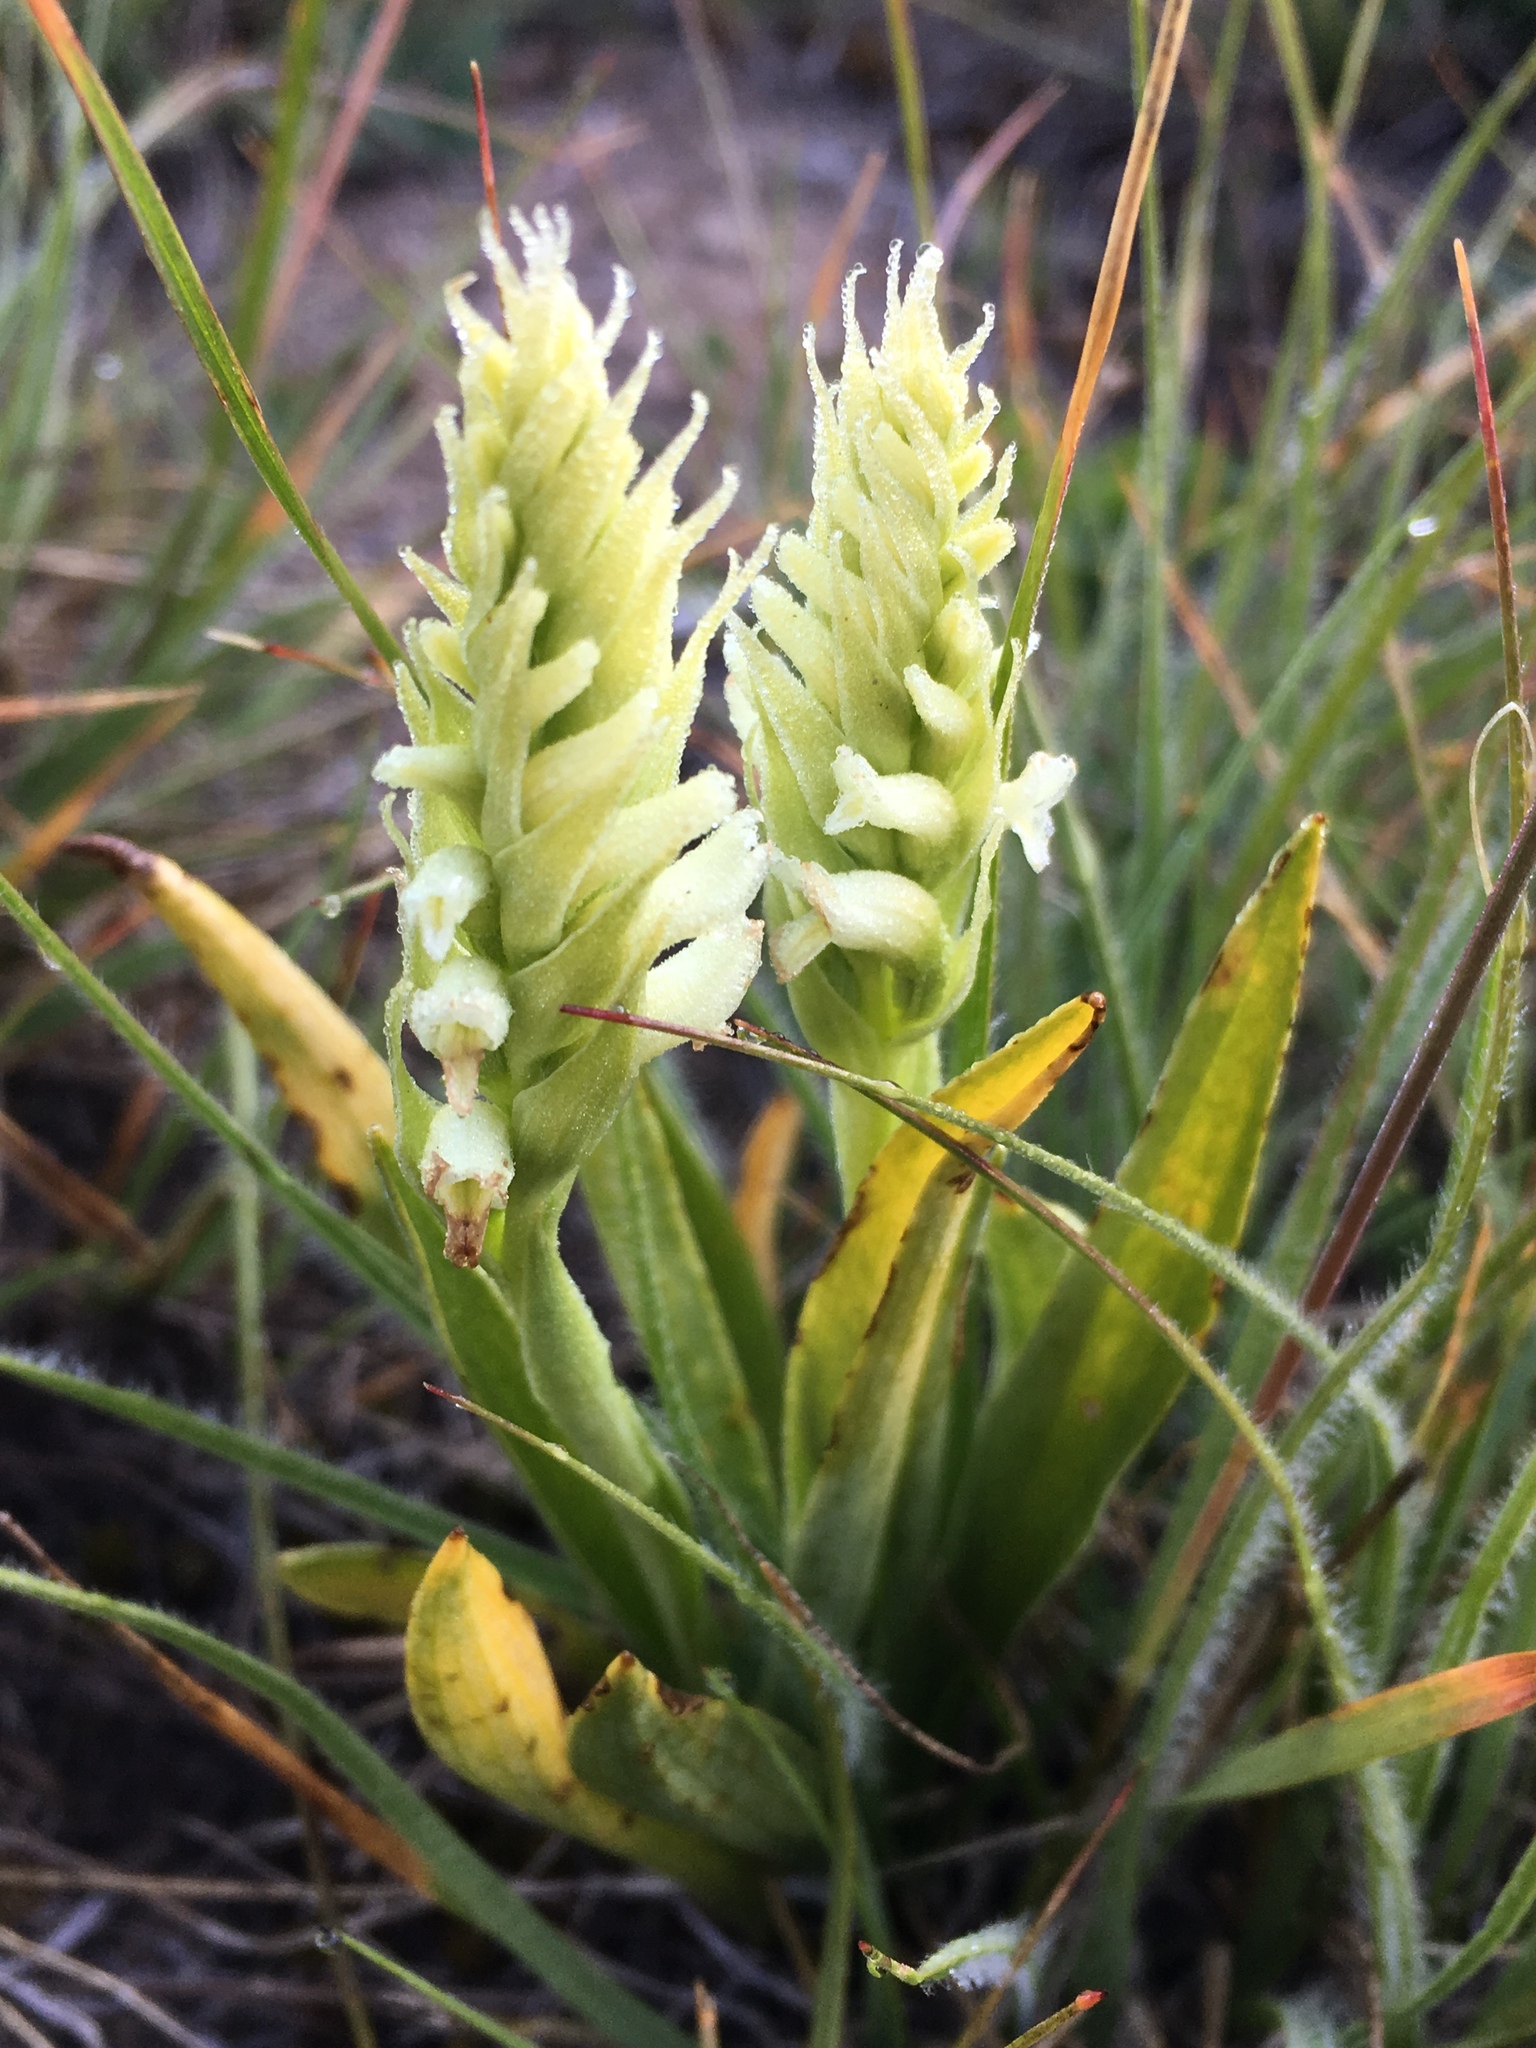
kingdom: Plantae
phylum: Tracheophyta
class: Liliopsida
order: Asparagales
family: Orchidaceae
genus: Spiranthes
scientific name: Spiranthes romanzoffiana
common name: Irish lady's-tresses
